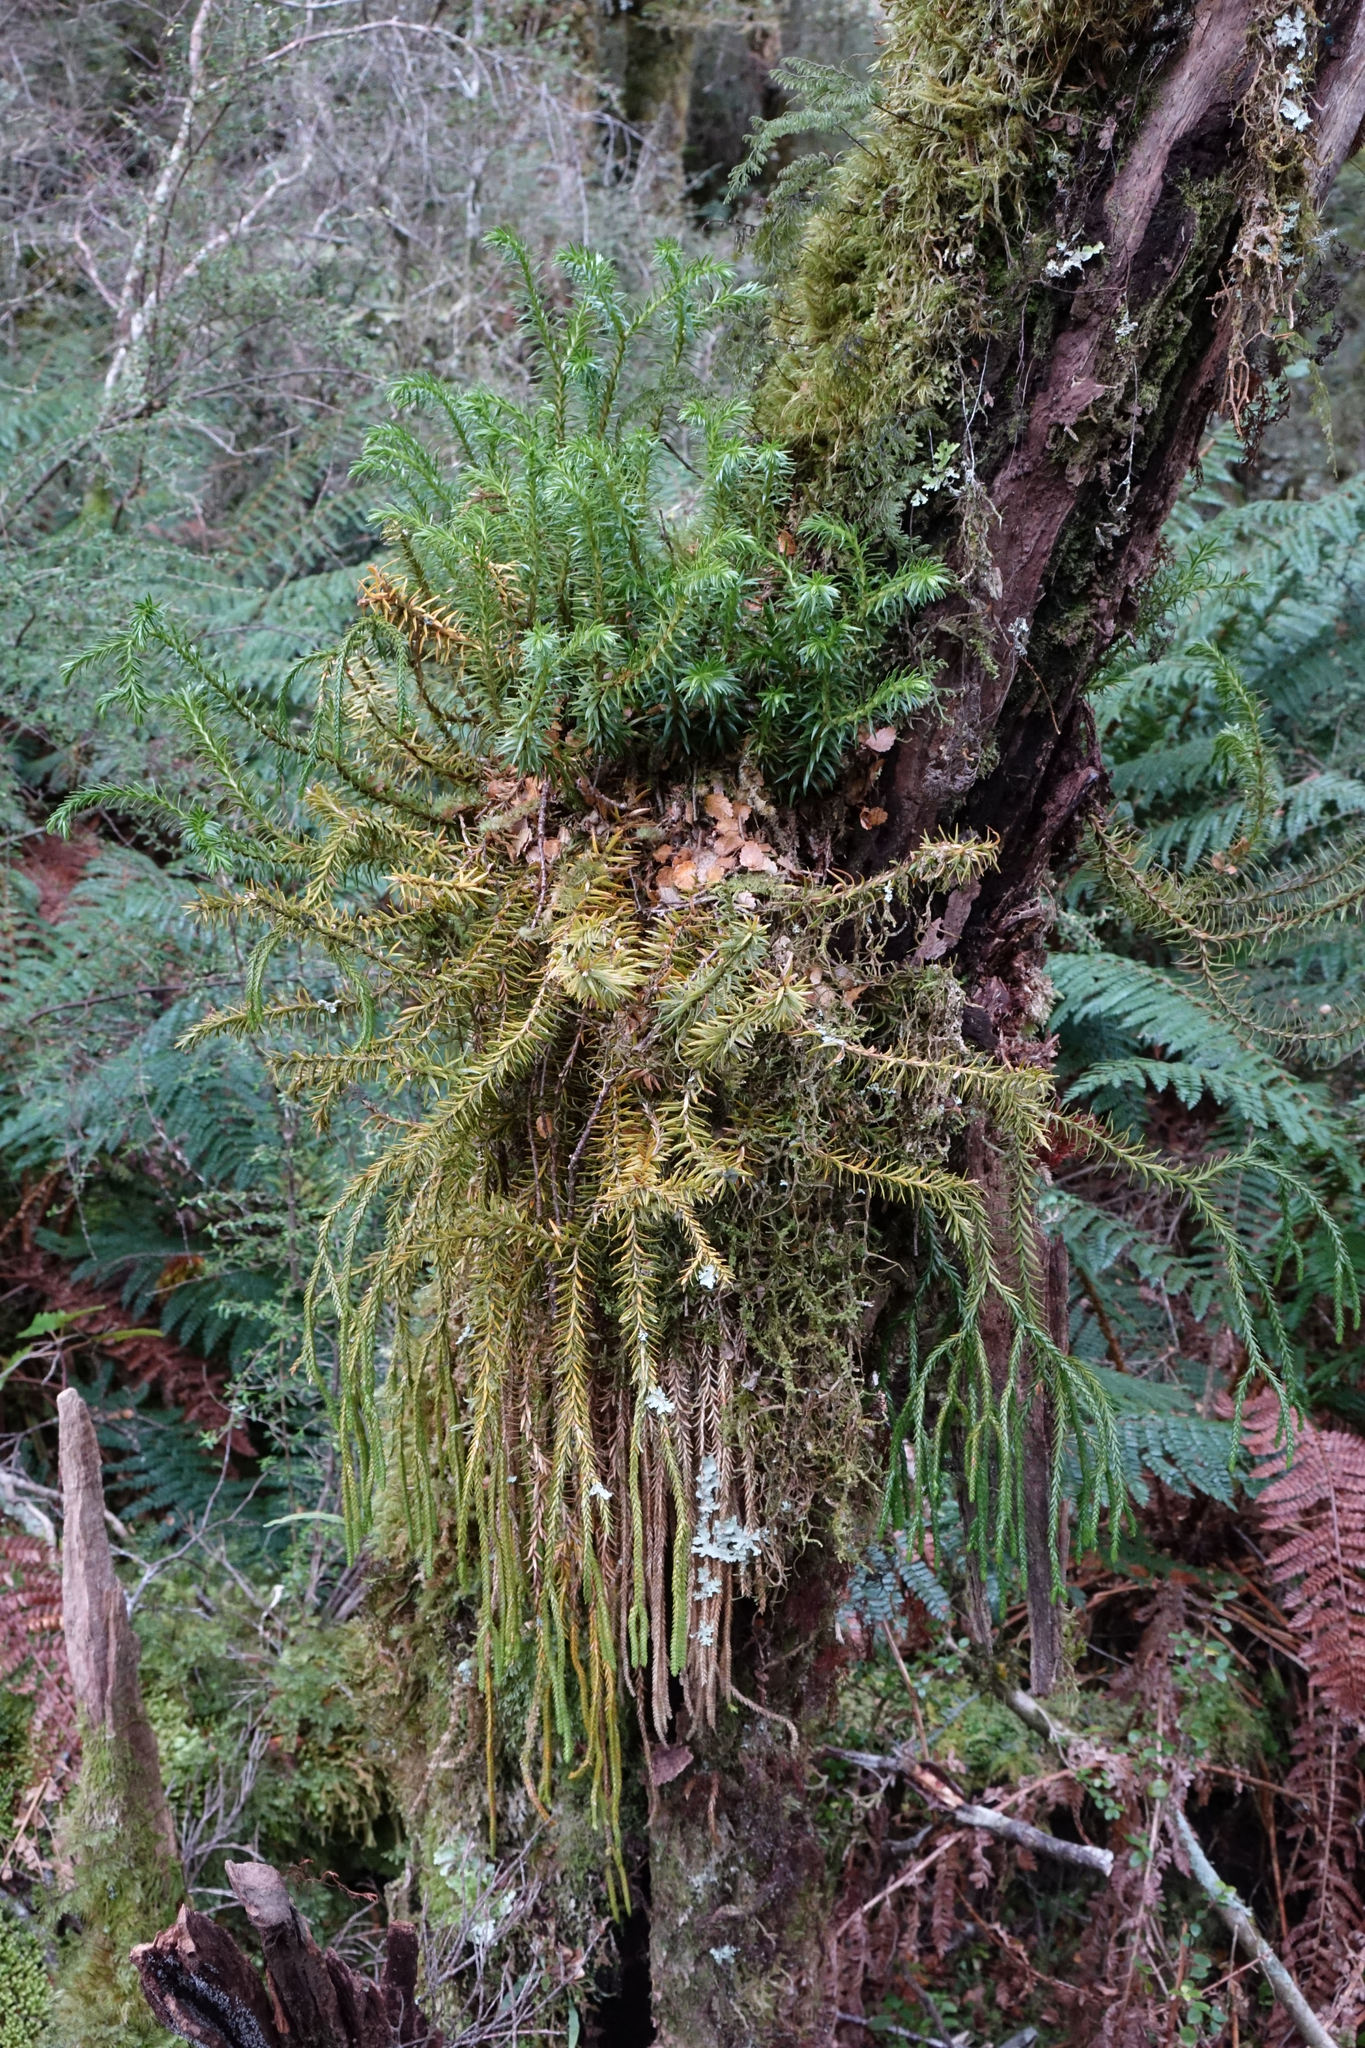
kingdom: Plantae
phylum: Tracheophyta
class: Lycopodiopsida
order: Lycopodiales
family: Lycopodiaceae
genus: Phlegmariurus
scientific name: Phlegmariurus varius
